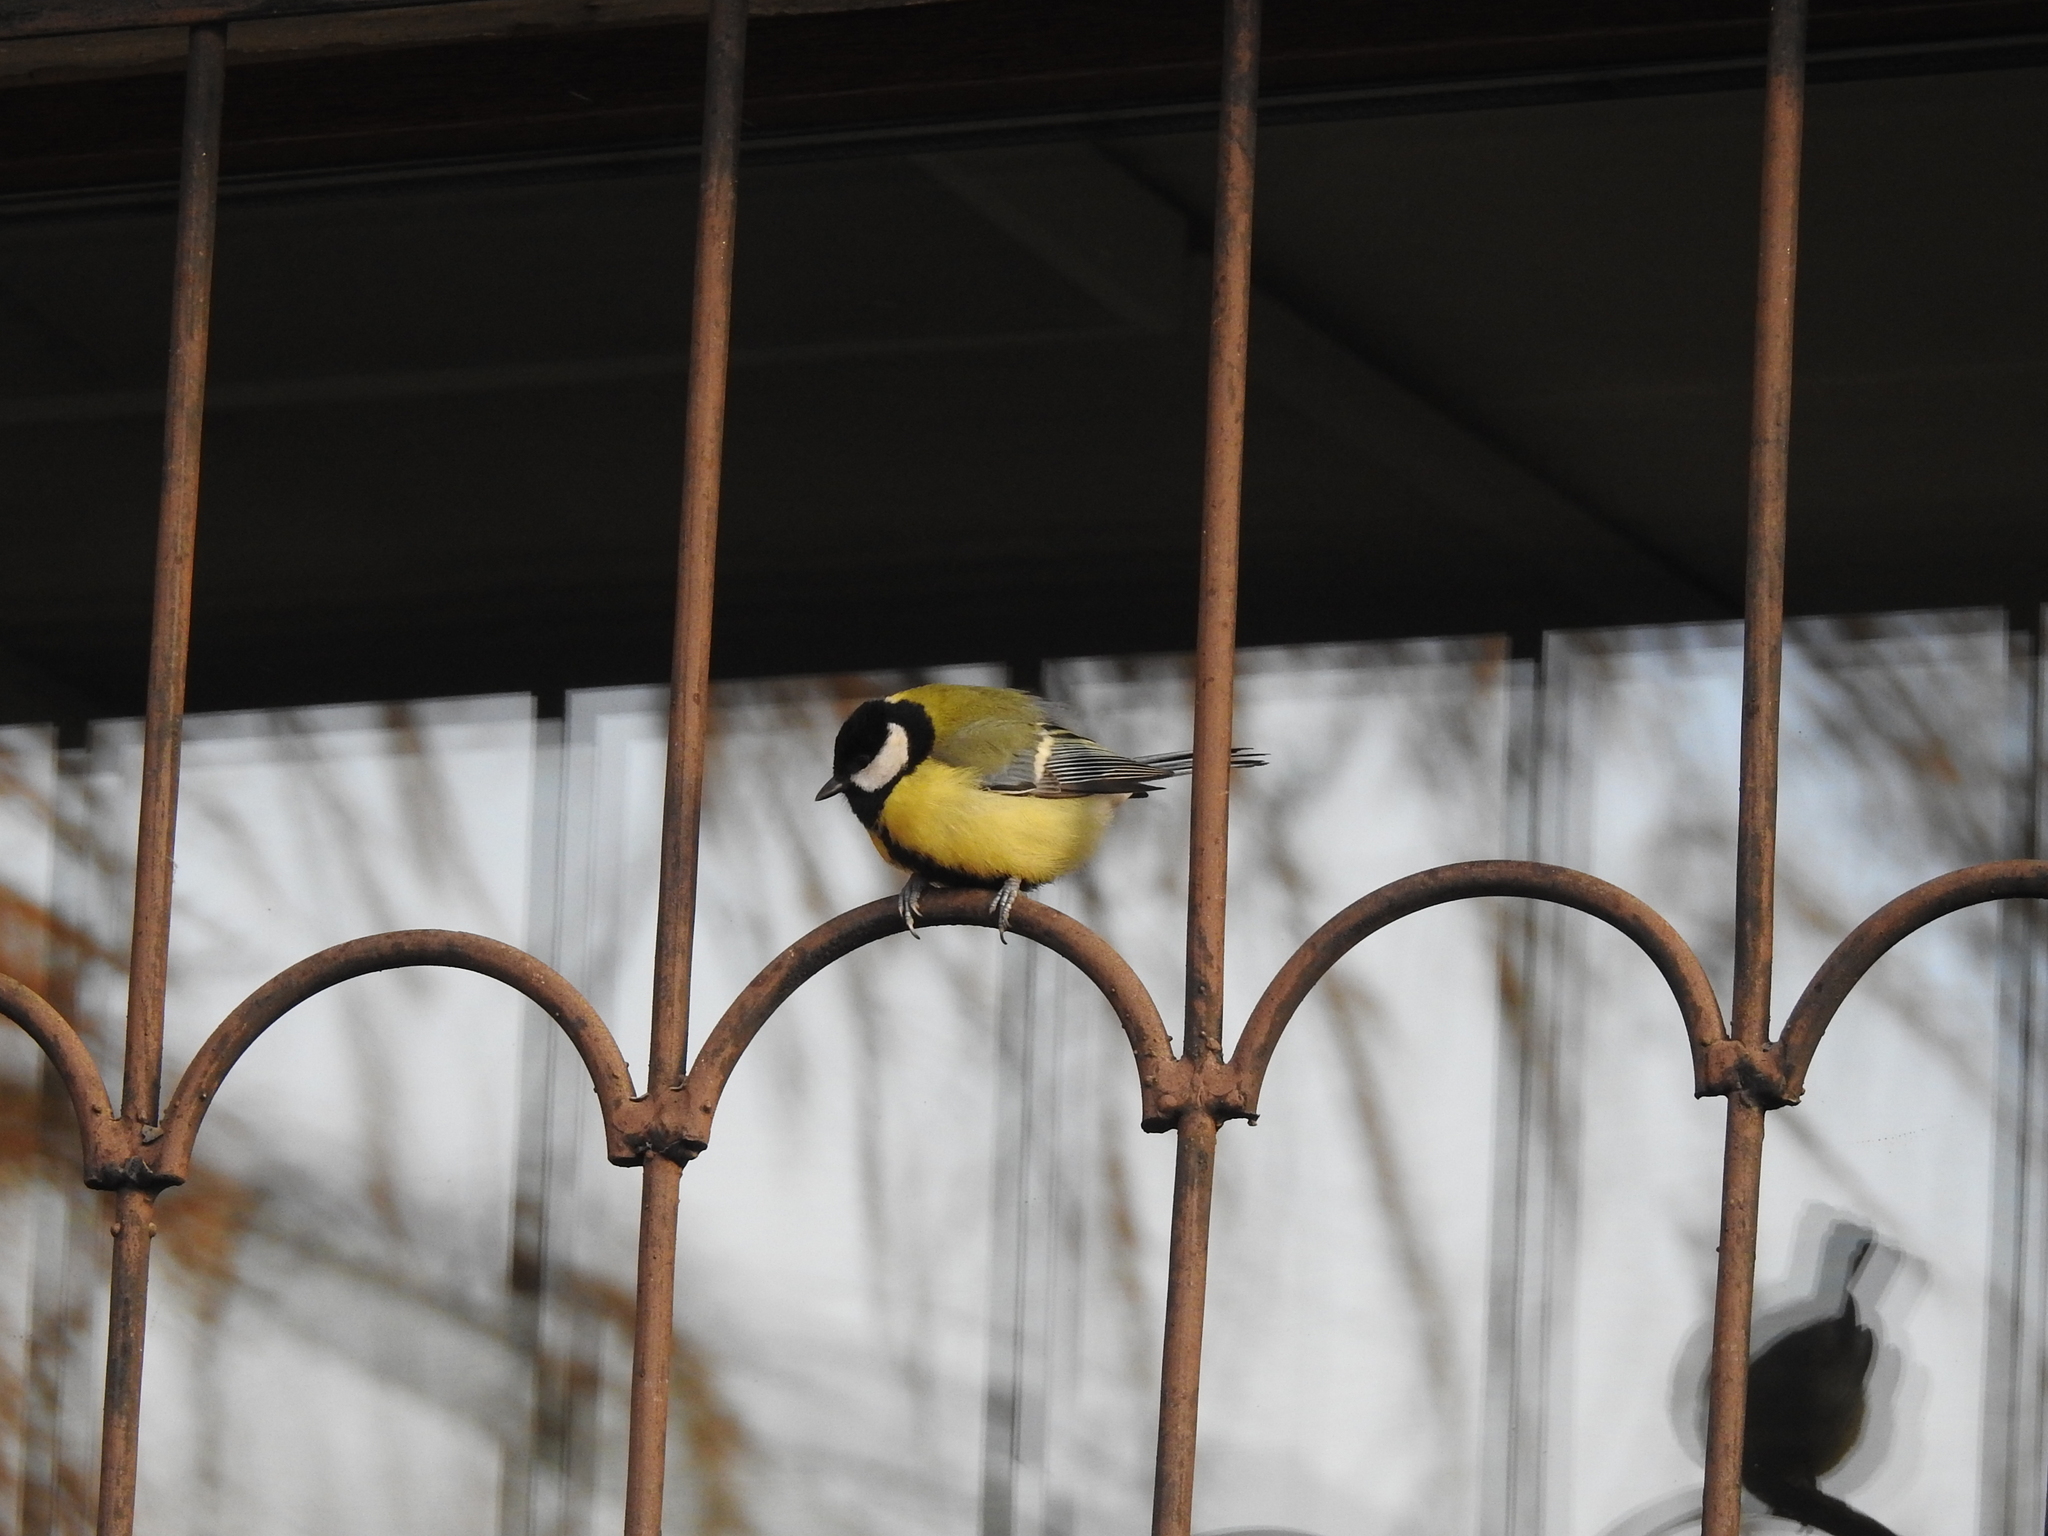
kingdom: Animalia
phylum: Chordata
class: Aves
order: Passeriformes
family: Paridae
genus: Parus
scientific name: Parus major
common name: Great tit
